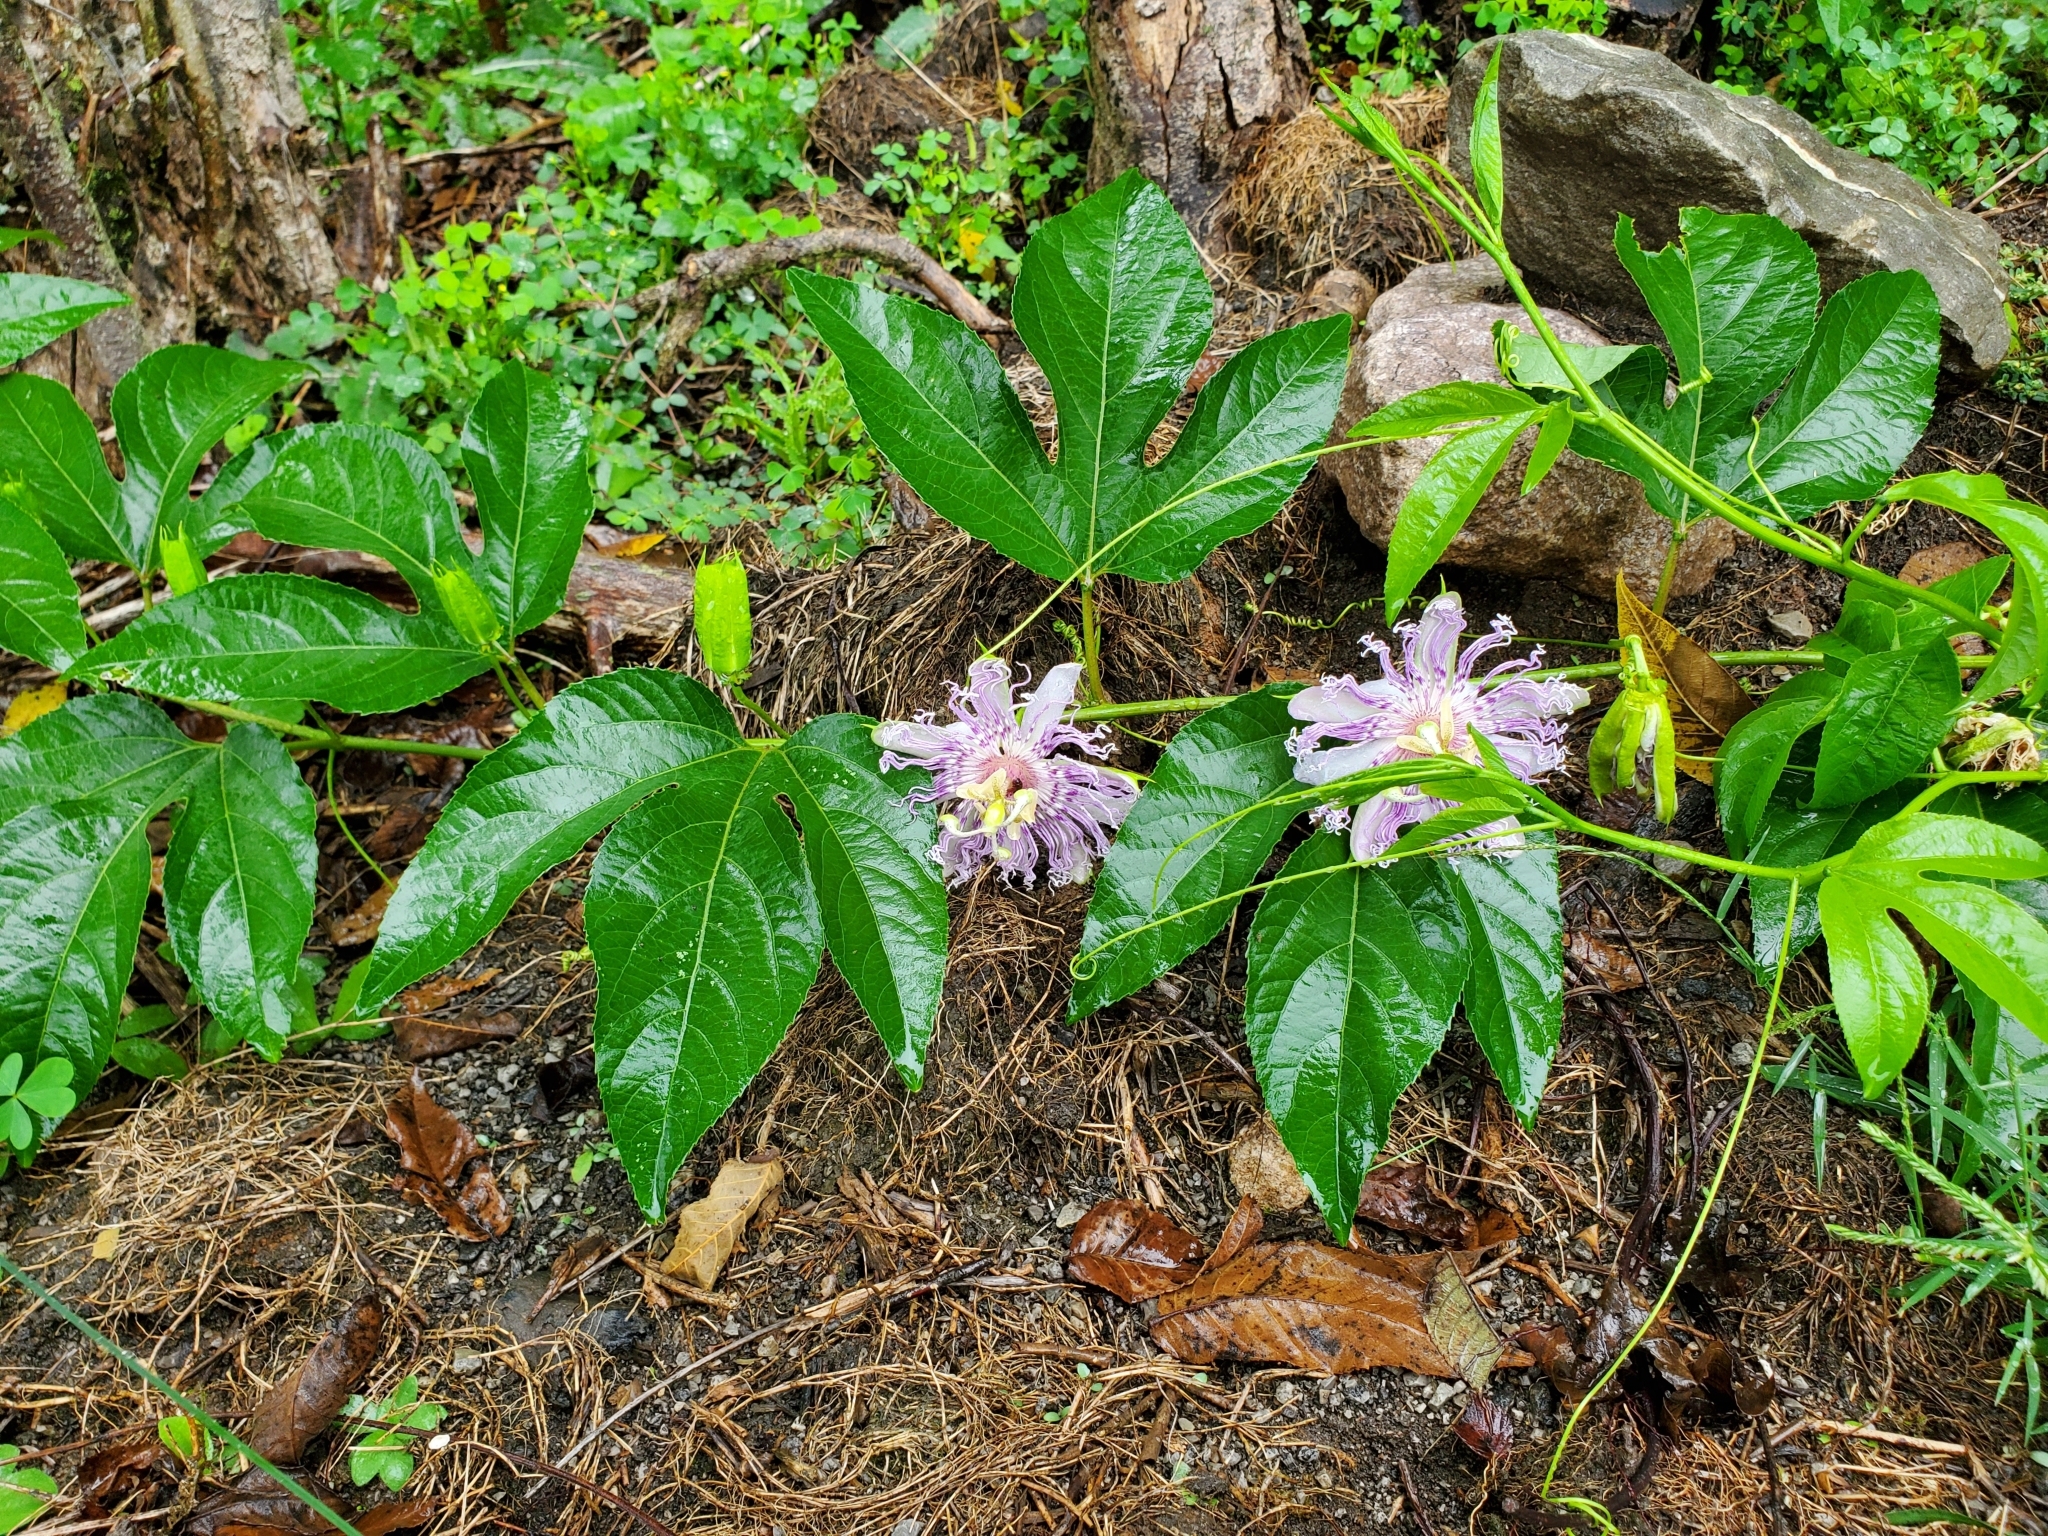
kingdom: Plantae
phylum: Tracheophyta
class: Magnoliopsida
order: Malpighiales
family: Passifloraceae
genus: Passiflora
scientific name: Passiflora incarnata
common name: Apricot-vine
